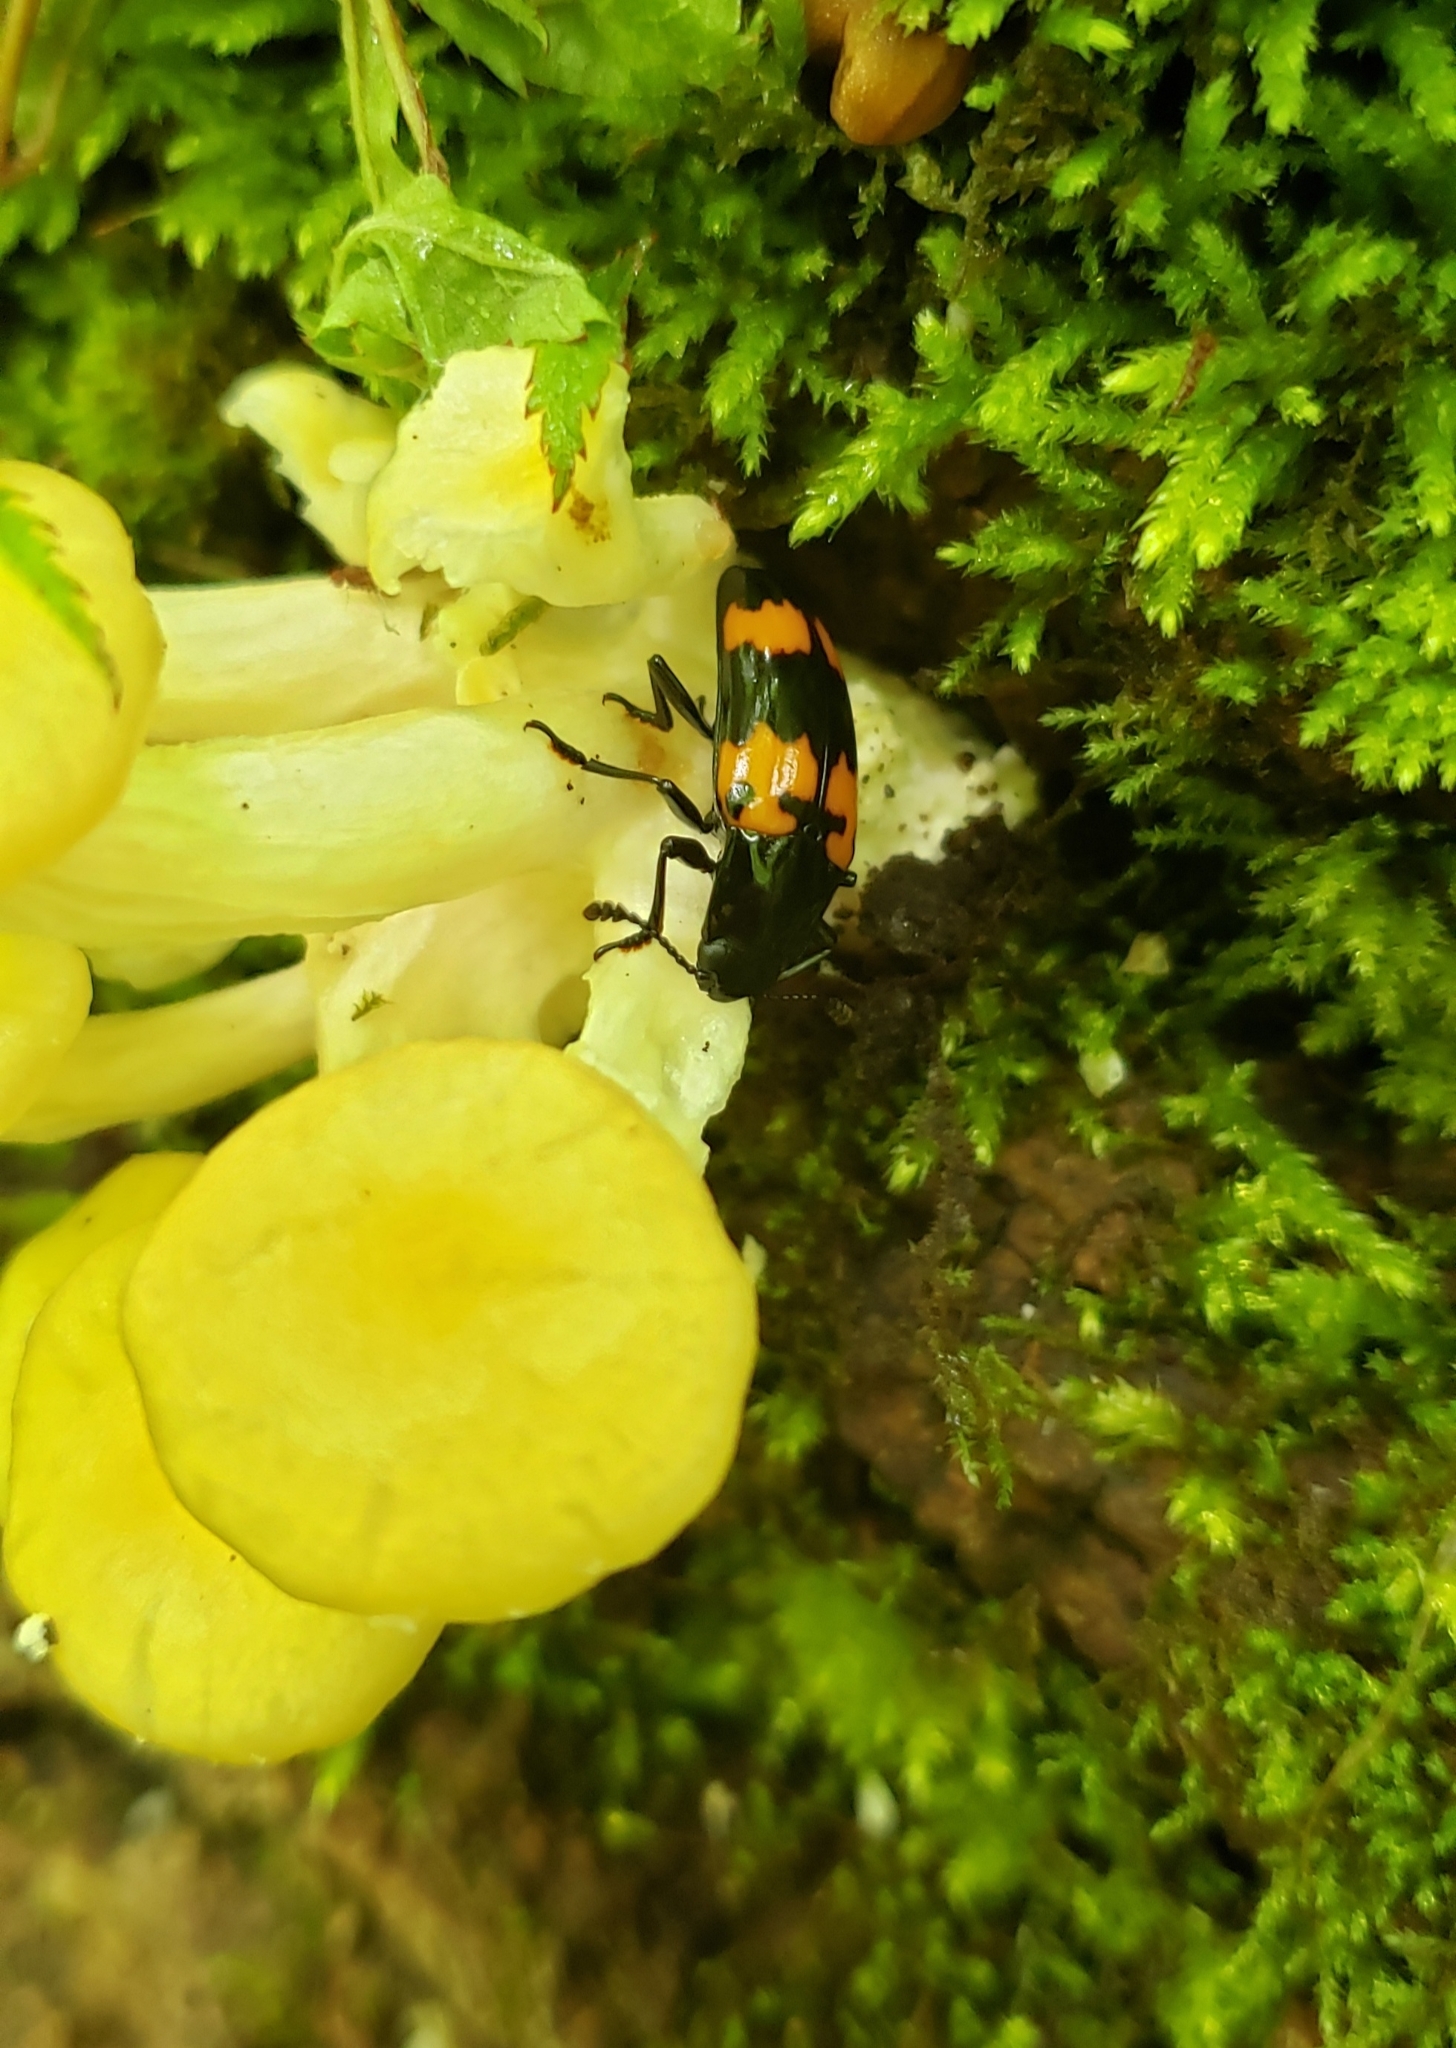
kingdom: Animalia
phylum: Arthropoda
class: Insecta
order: Coleoptera
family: Erotylidae
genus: Megalodacne
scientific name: Megalodacne heros
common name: Pleasing fungus beetle
